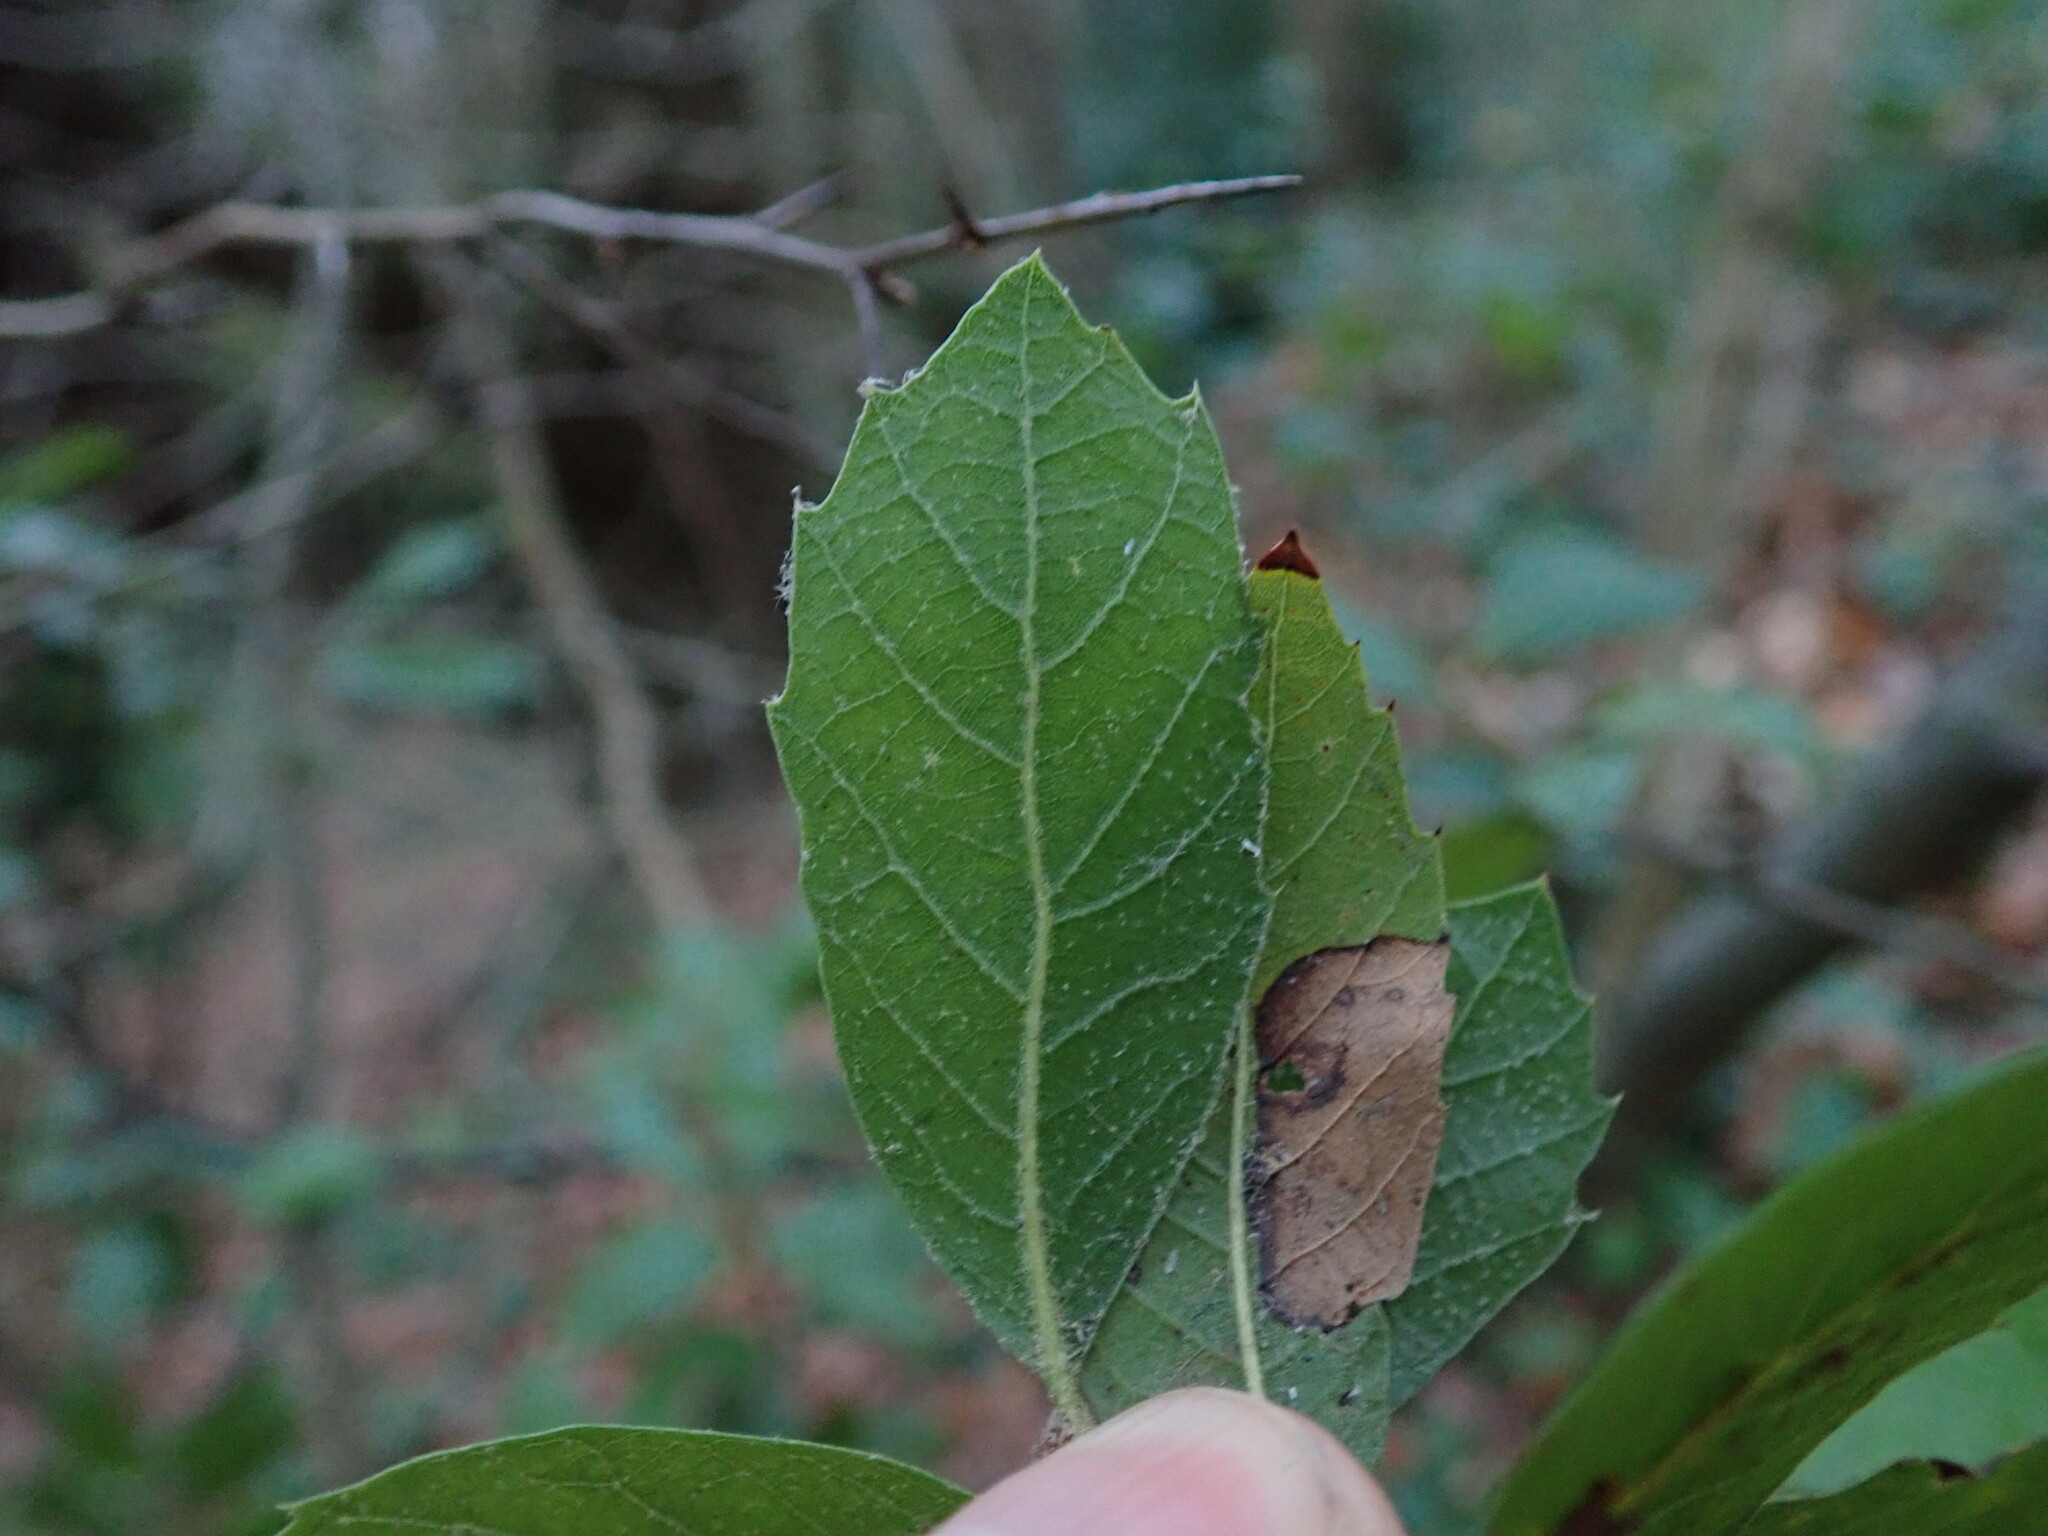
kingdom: Plantae
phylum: Tracheophyta
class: Magnoliopsida
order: Fagales
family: Fagaceae
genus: Quercus
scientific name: Quercus ilex
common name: Evergreen oak
